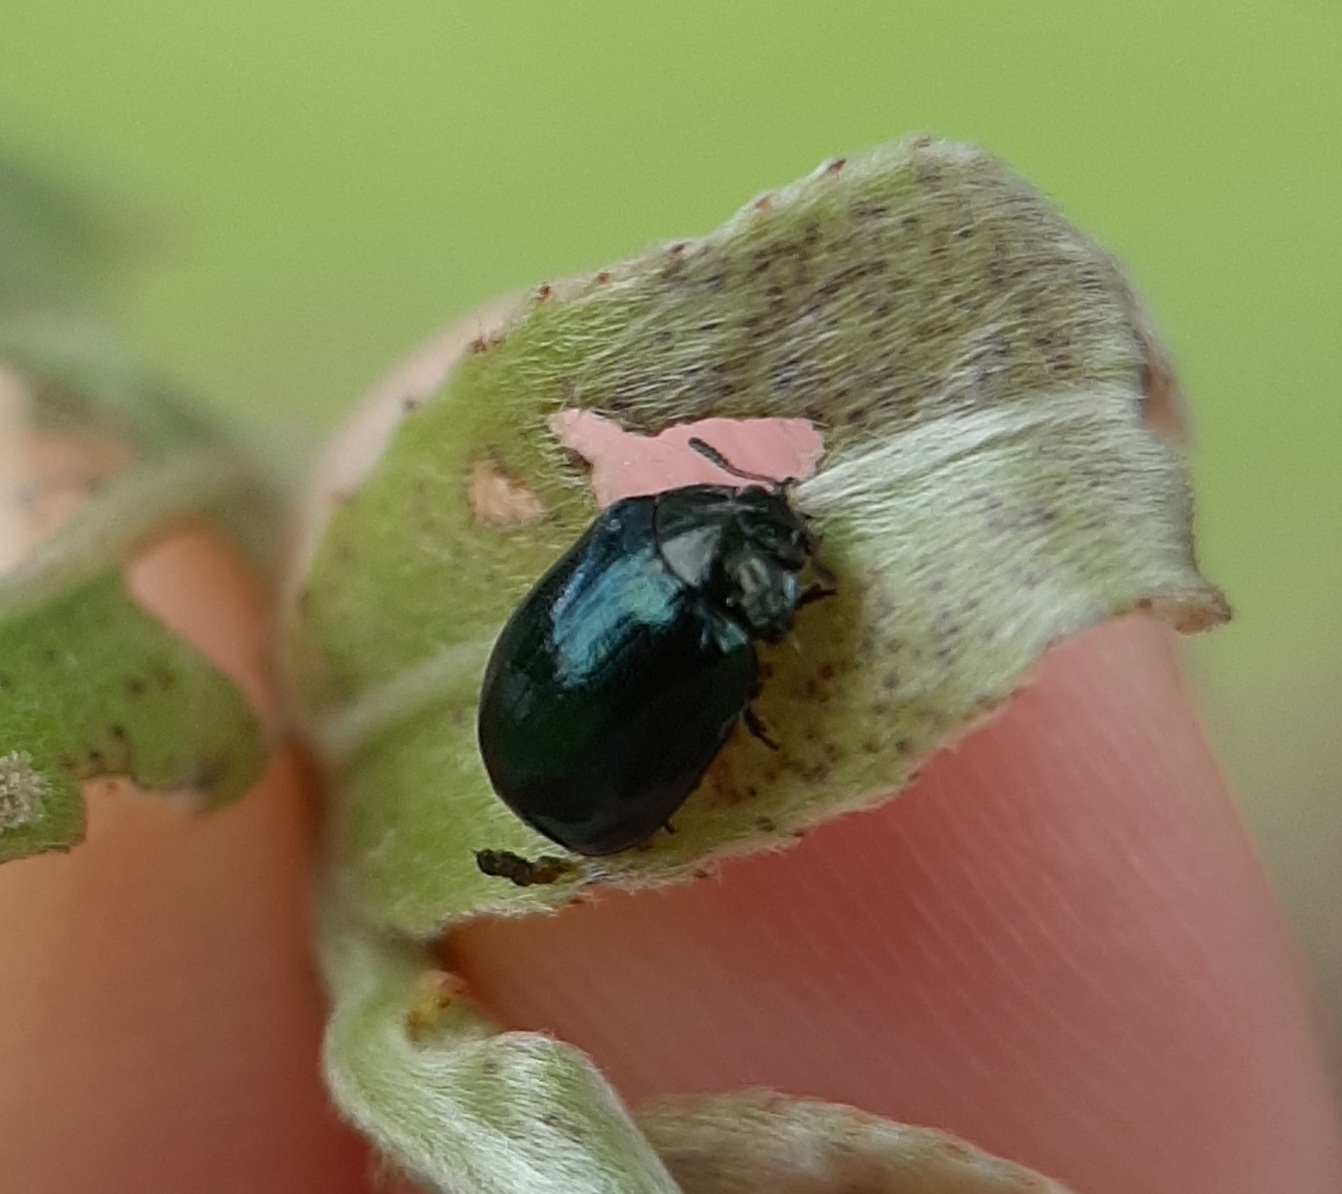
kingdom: Animalia
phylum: Arthropoda
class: Insecta
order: Coleoptera
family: Chrysomelidae
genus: Plagiodera
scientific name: Plagiodera versicolora
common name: Imported willow leaf beetle
